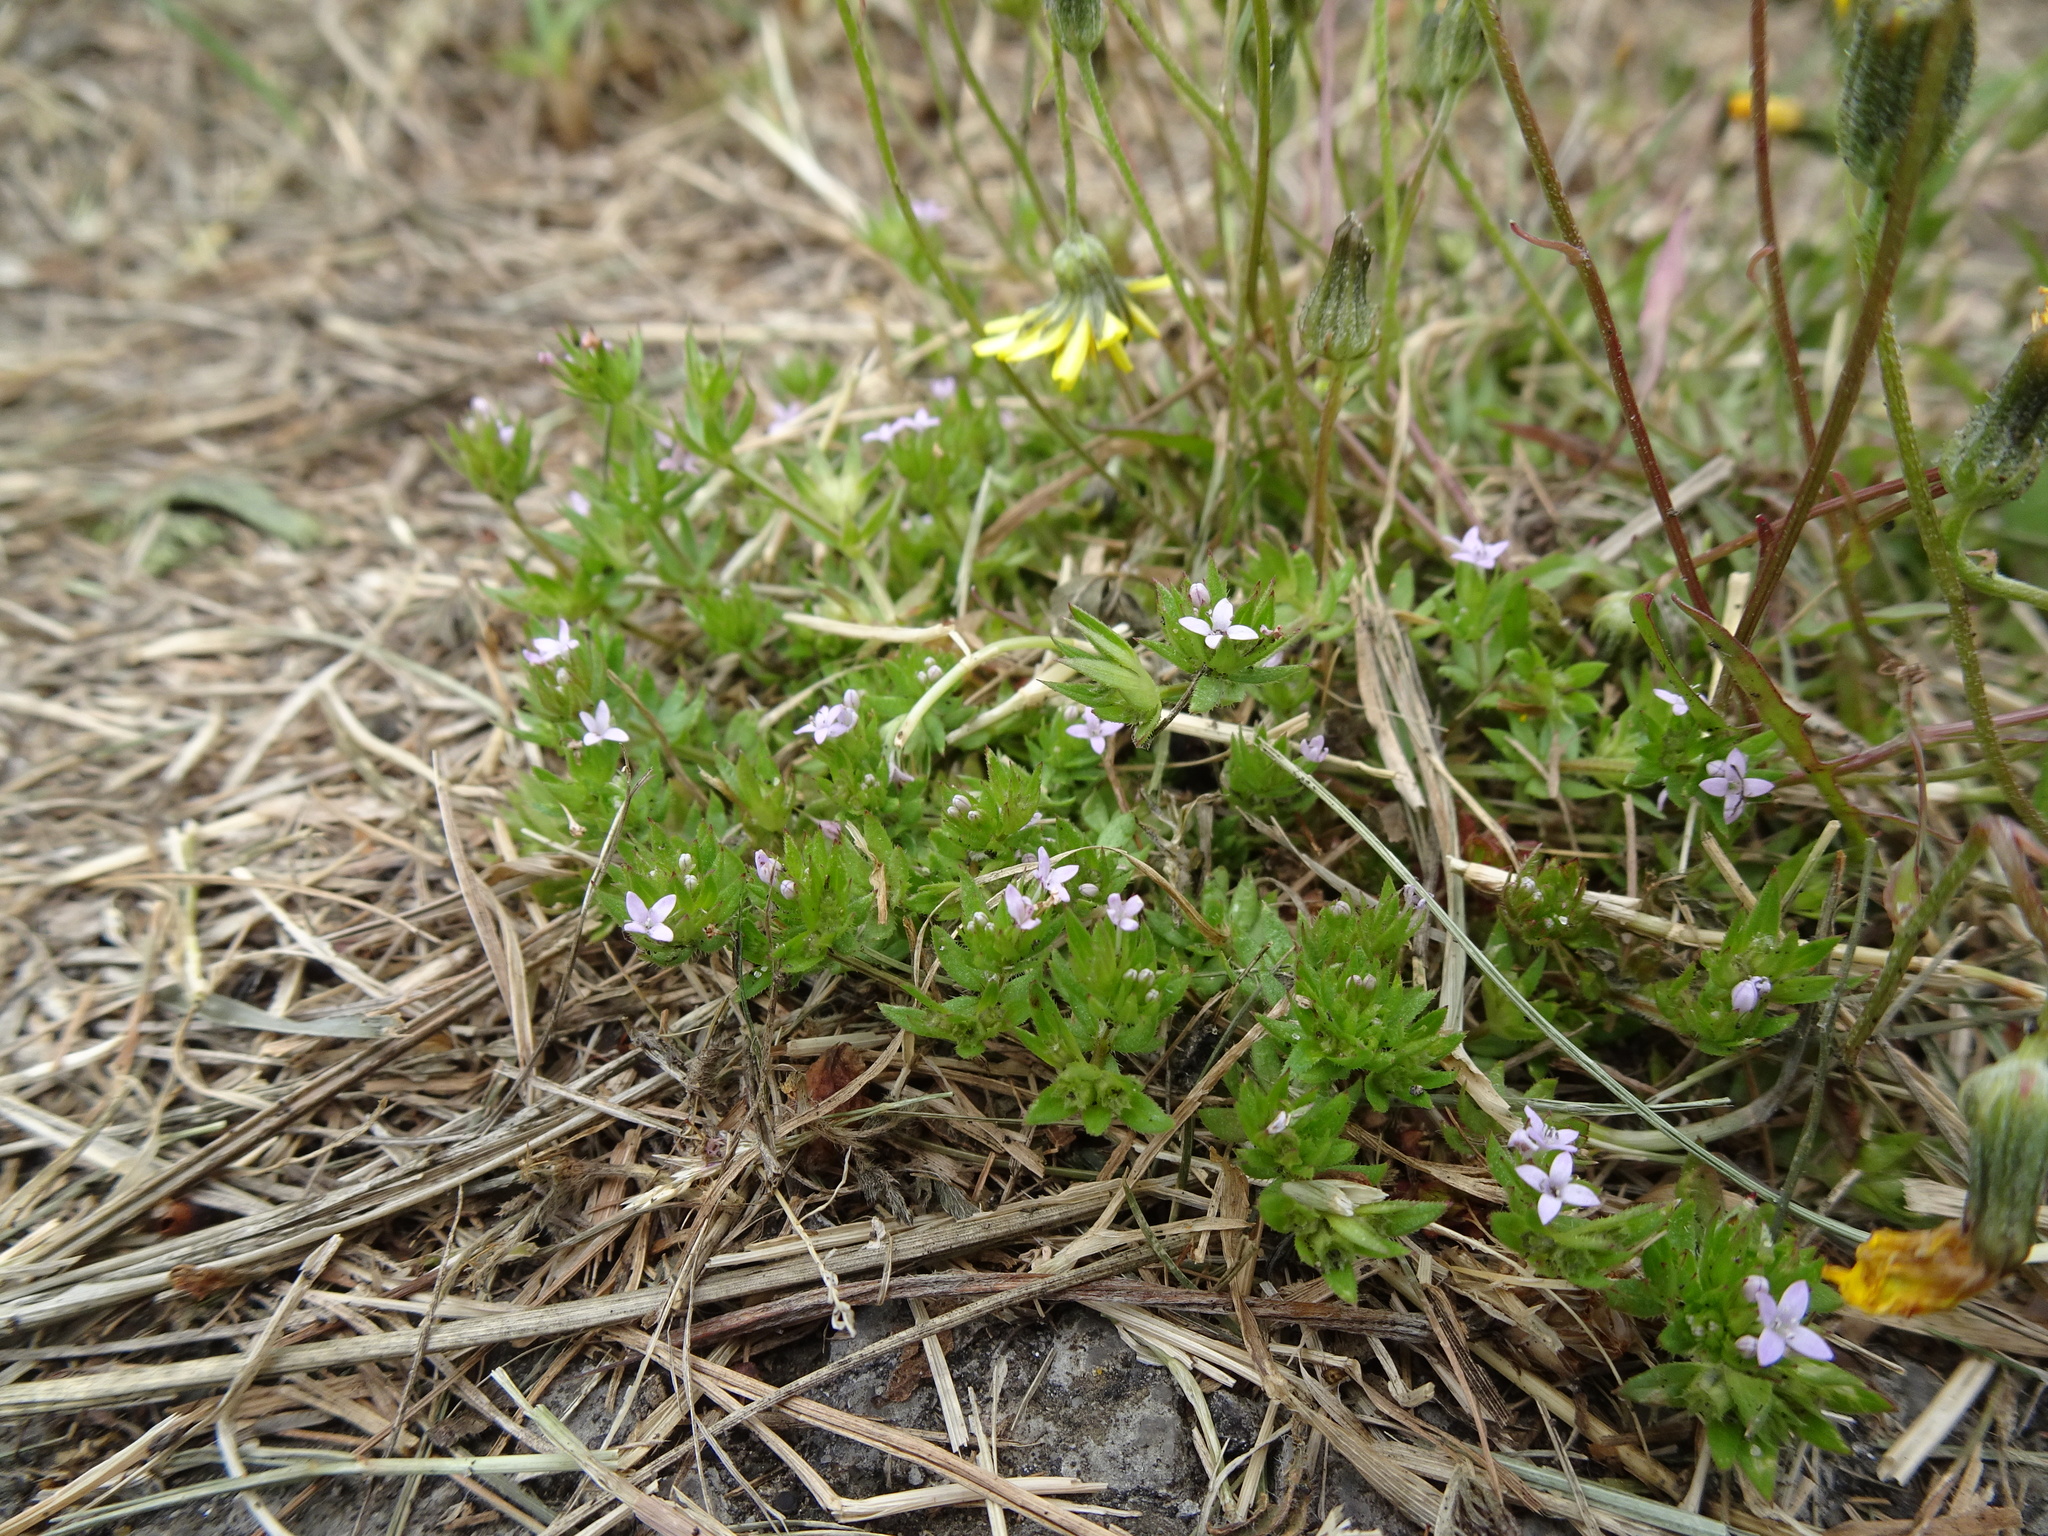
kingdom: Plantae
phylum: Tracheophyta
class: Magnoliopsida
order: Gentianales
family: Rubiaceae
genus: Sherardia
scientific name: Sherardia arvensis
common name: Field madder
